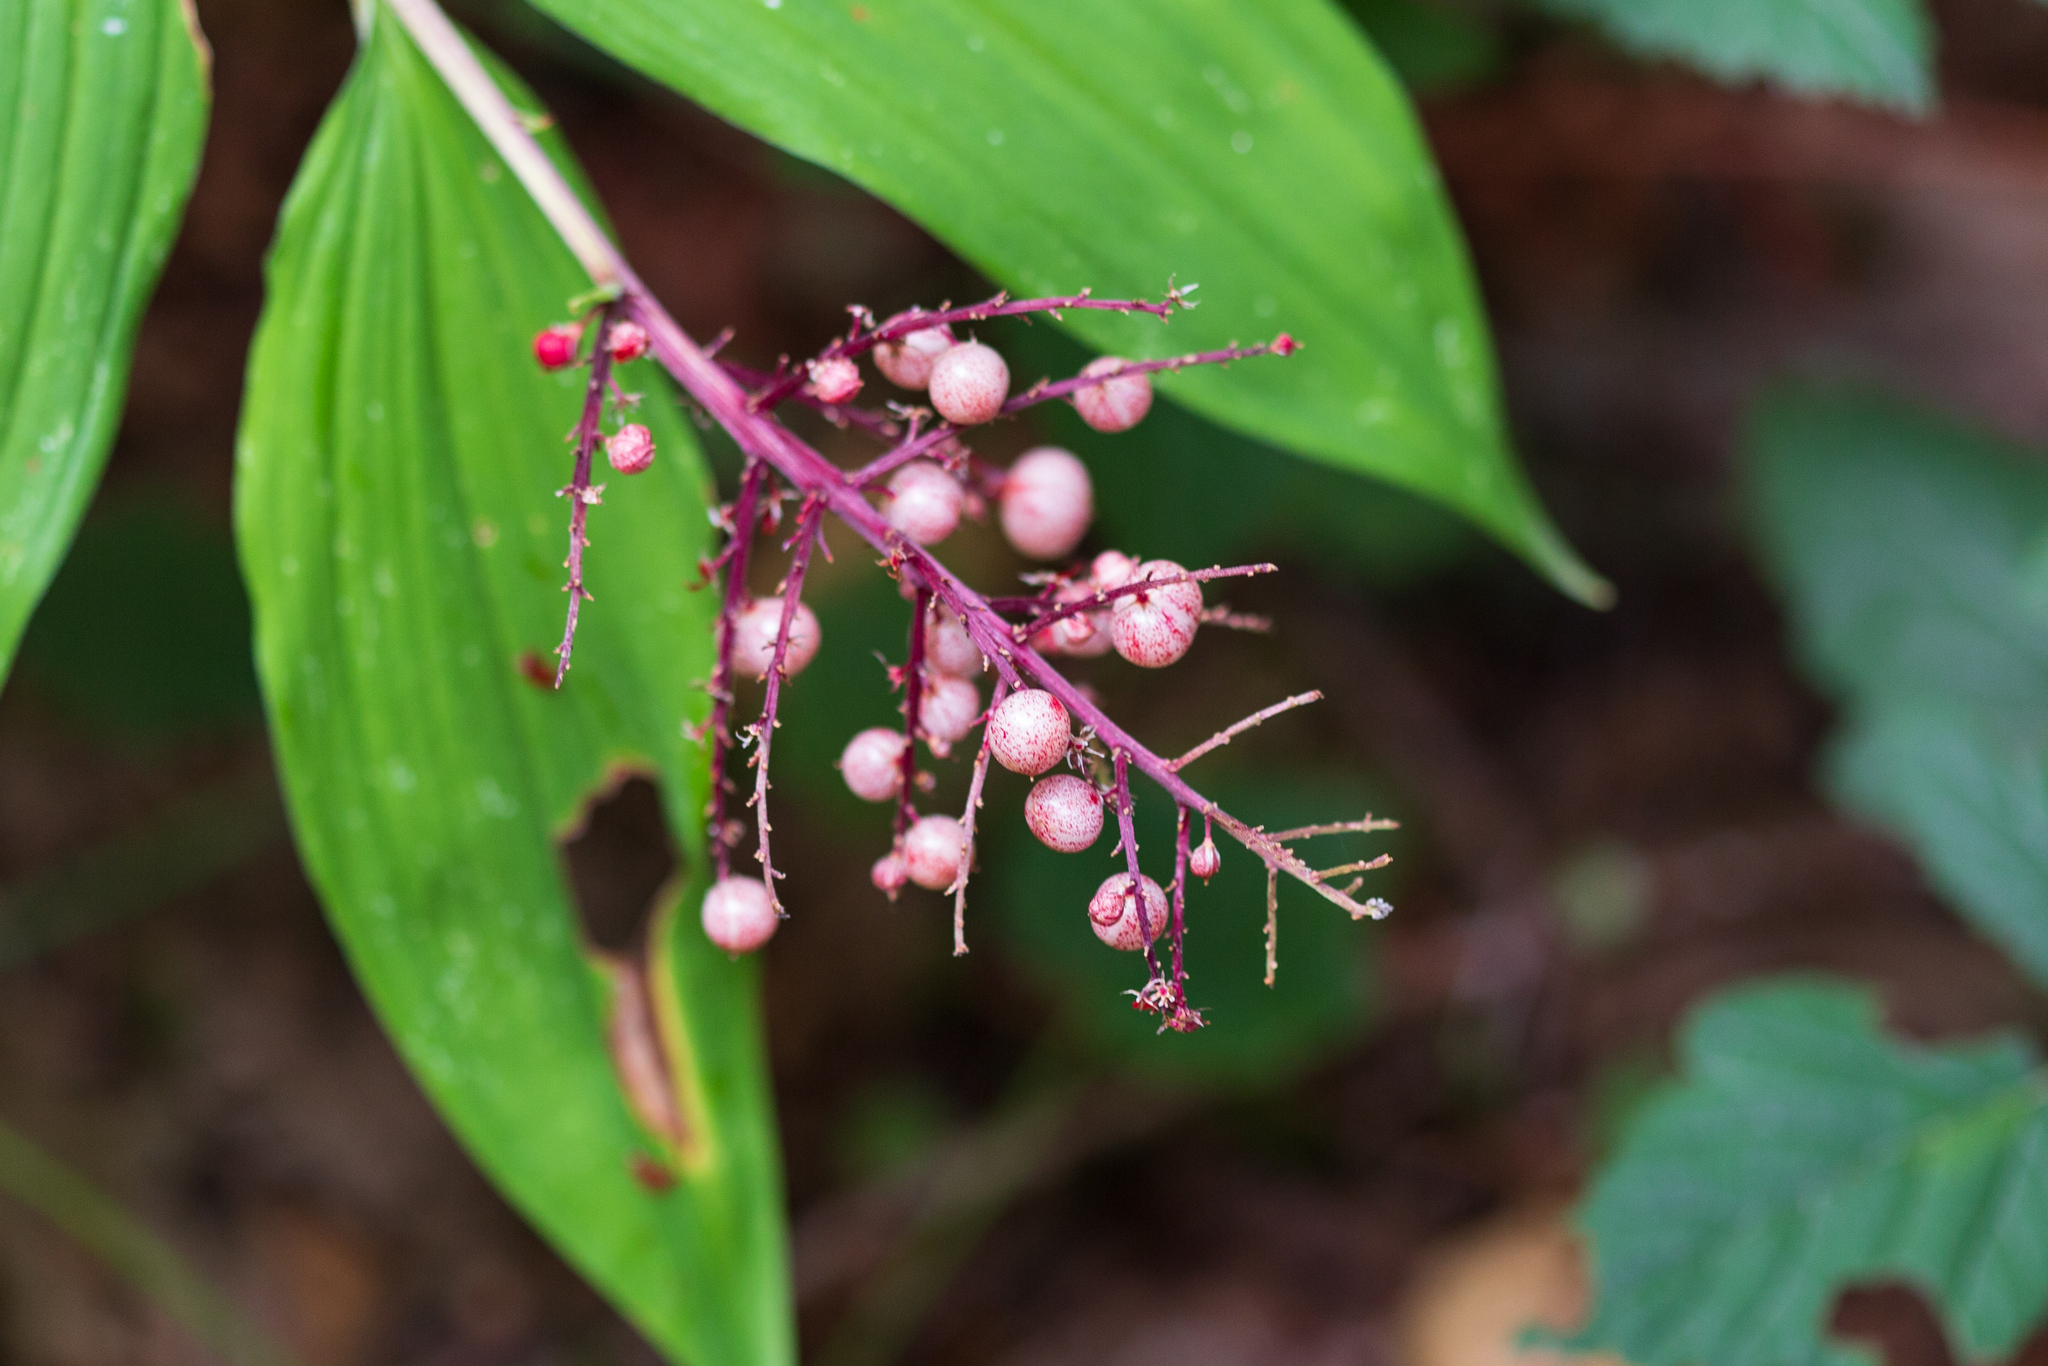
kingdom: Plantae
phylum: Tracheophyta
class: Liliopsida
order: Asparagales
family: Asparagaceae
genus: Maianthemum
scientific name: Maianthemum racemosum
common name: False spikenard
